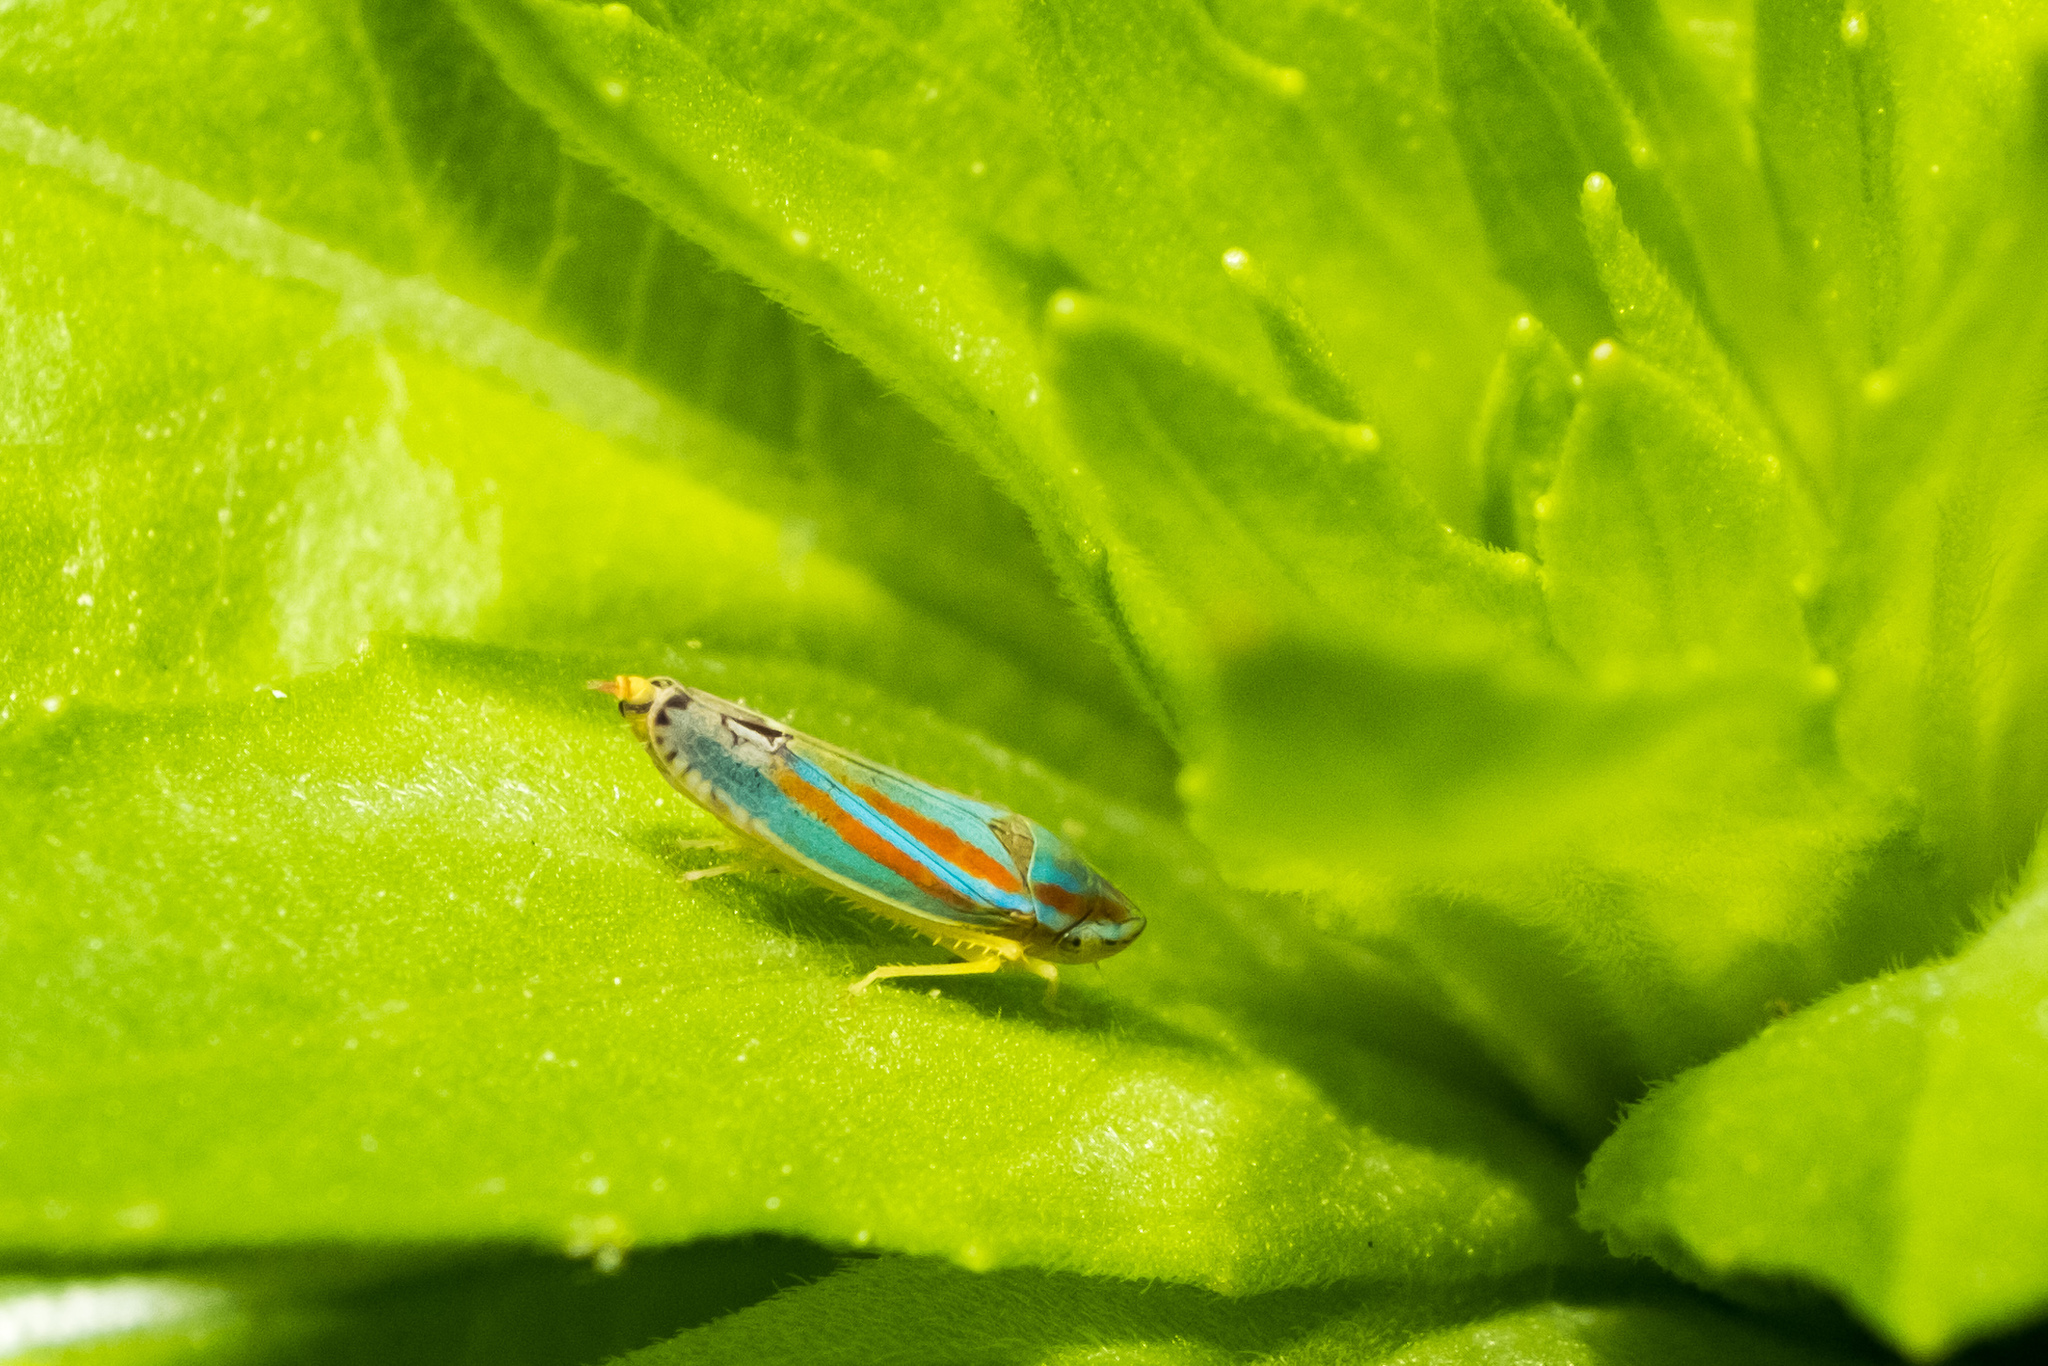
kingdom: Animalia
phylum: Arthropoda
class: Insecta
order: Hemiptera
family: Cicadellidae
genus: Graphocephala
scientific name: Graphocephala versuta
